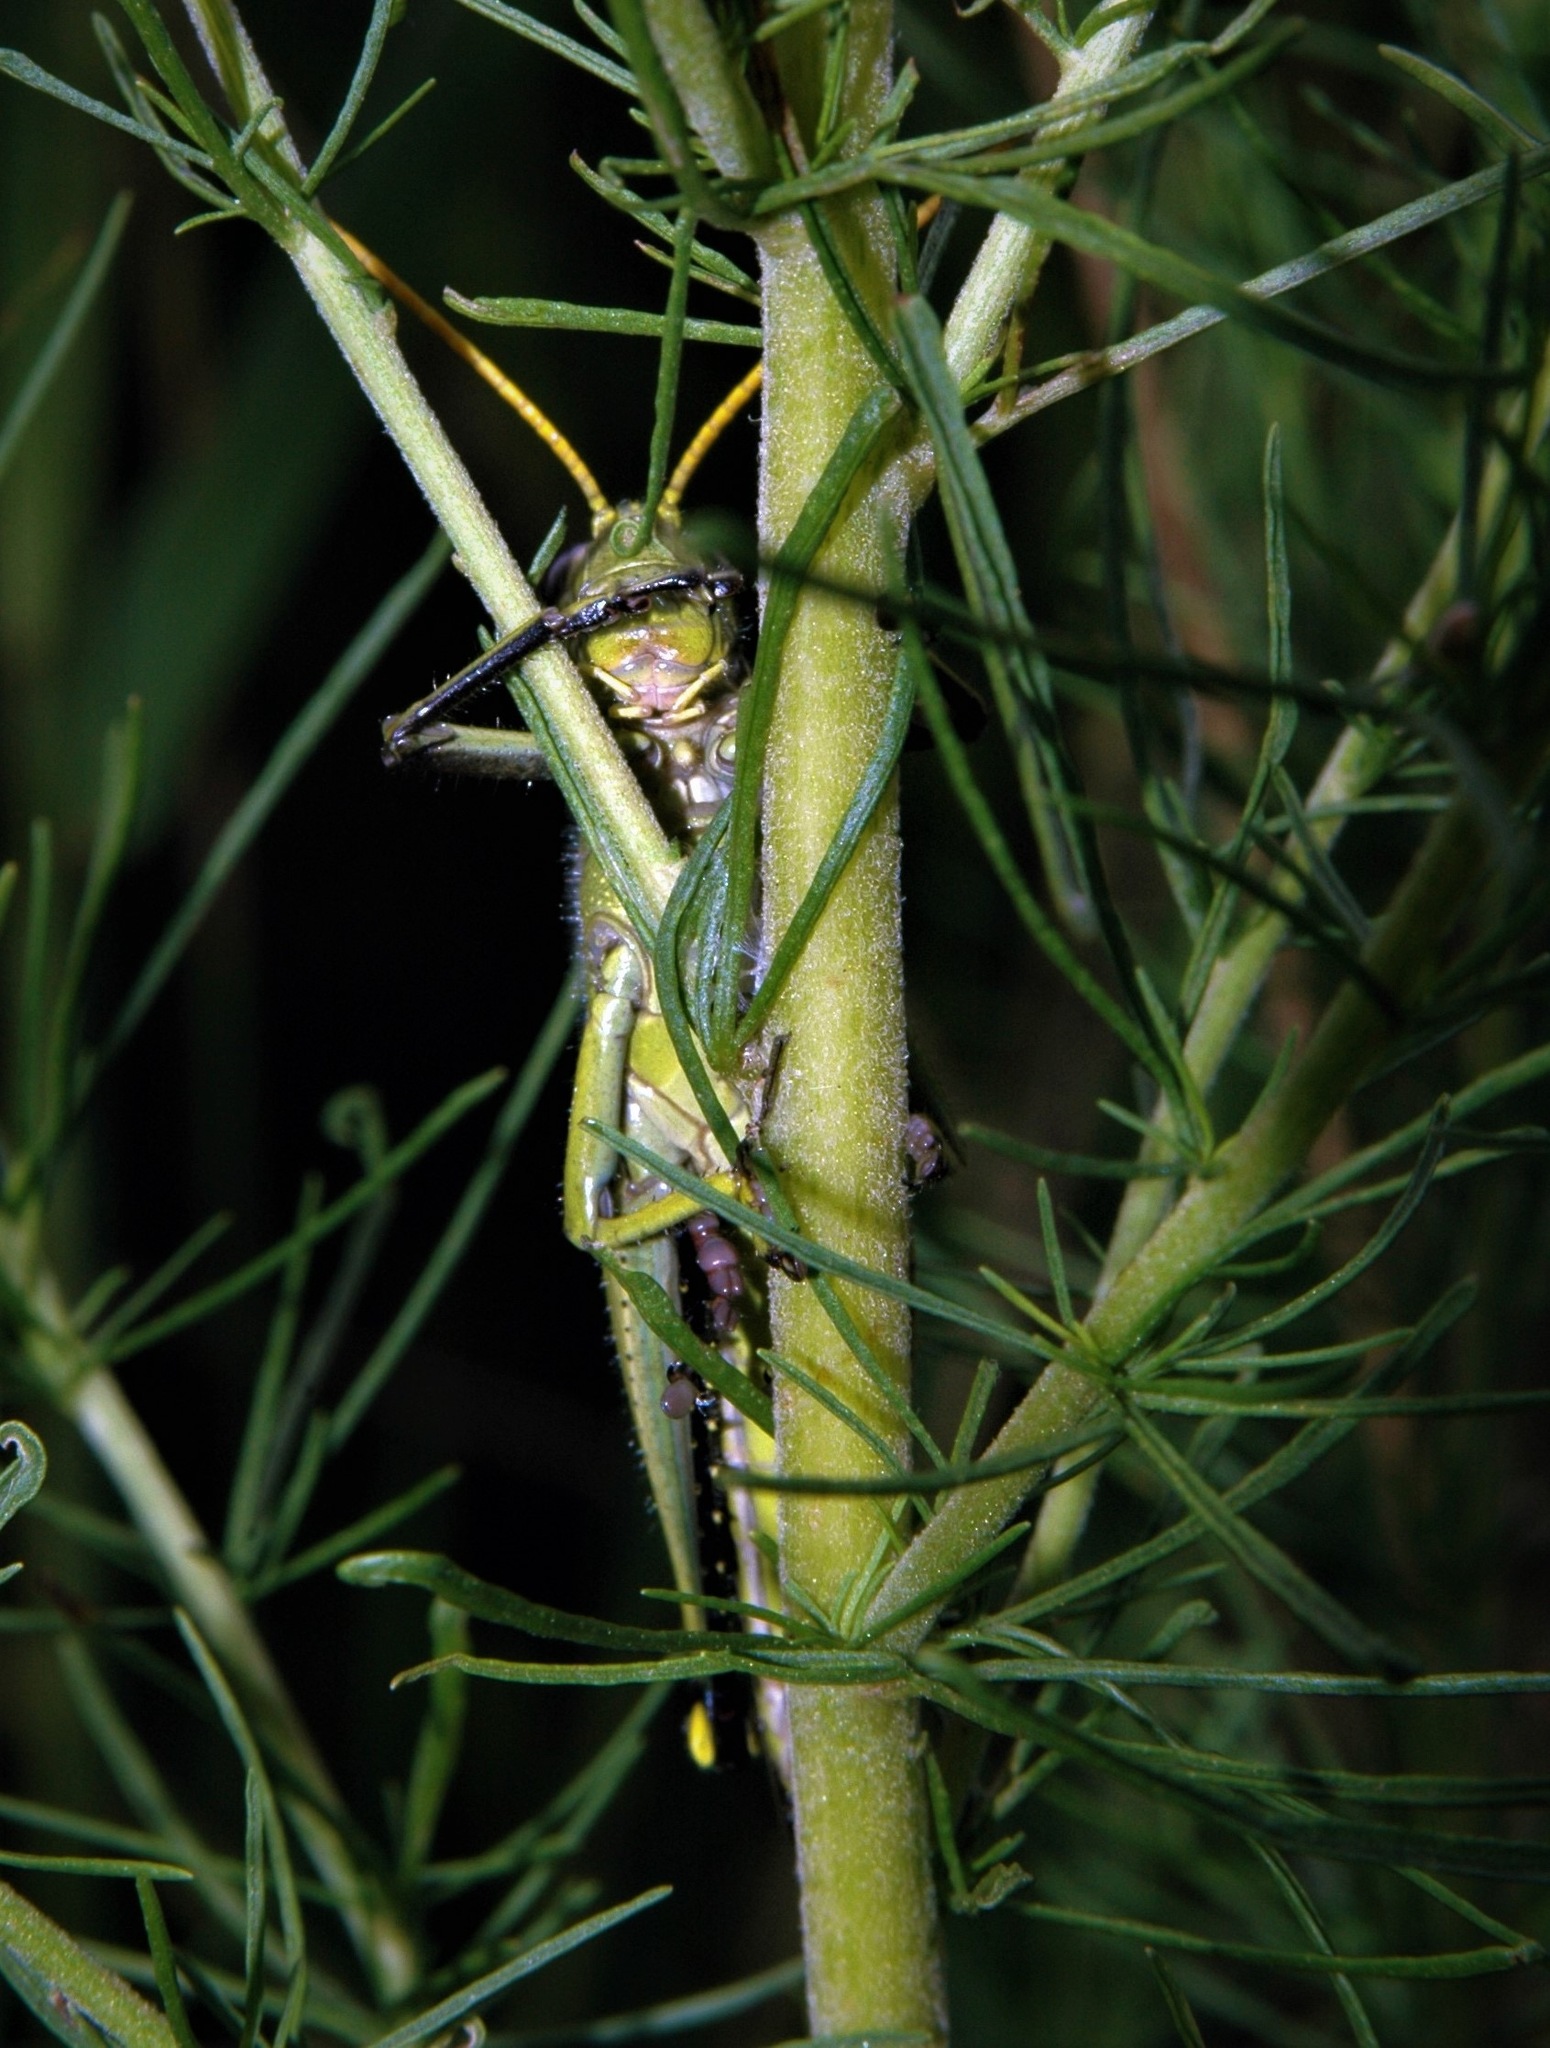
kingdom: Animalia
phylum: Arthropoda
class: Insecta
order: Orthoptera
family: Acrididae
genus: Schistocerca
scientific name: Schistocerca obscura
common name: Obscure bird grasshopper
